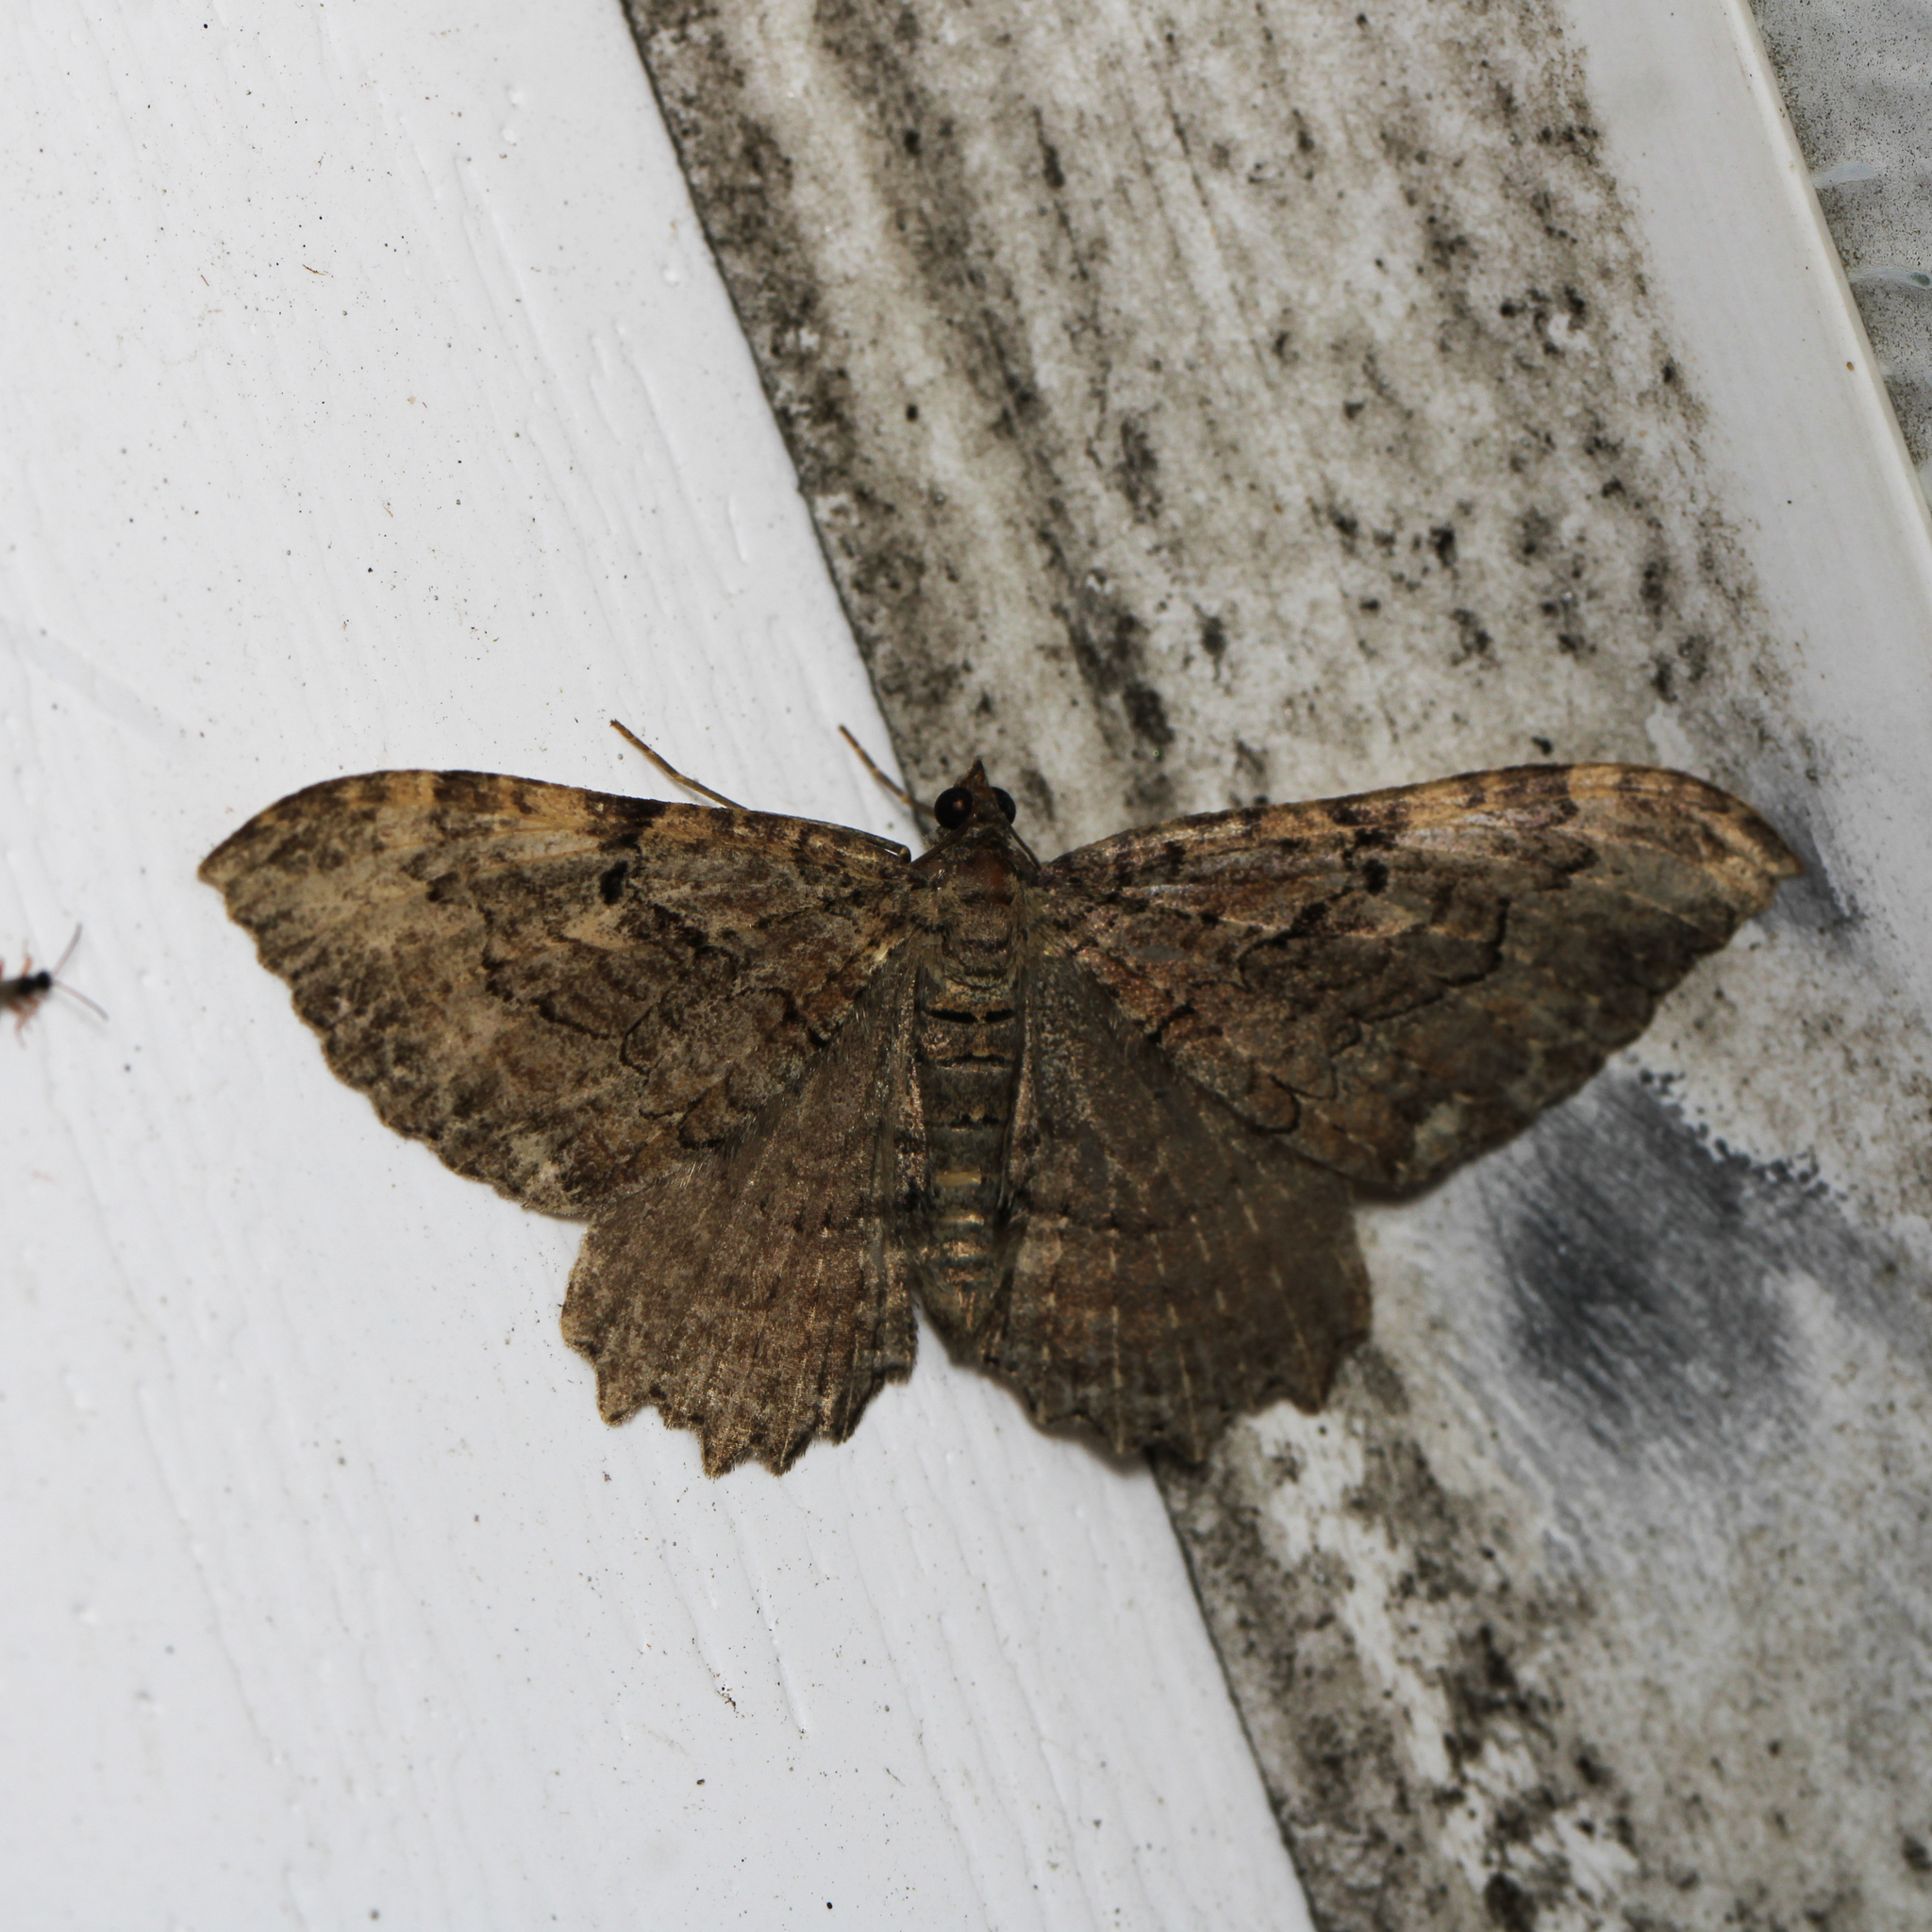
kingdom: Animalia
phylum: Arthropoda
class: Insecta
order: Lepidoptera
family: Geometridae
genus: Rheumaptera
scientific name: Rheumaptera
